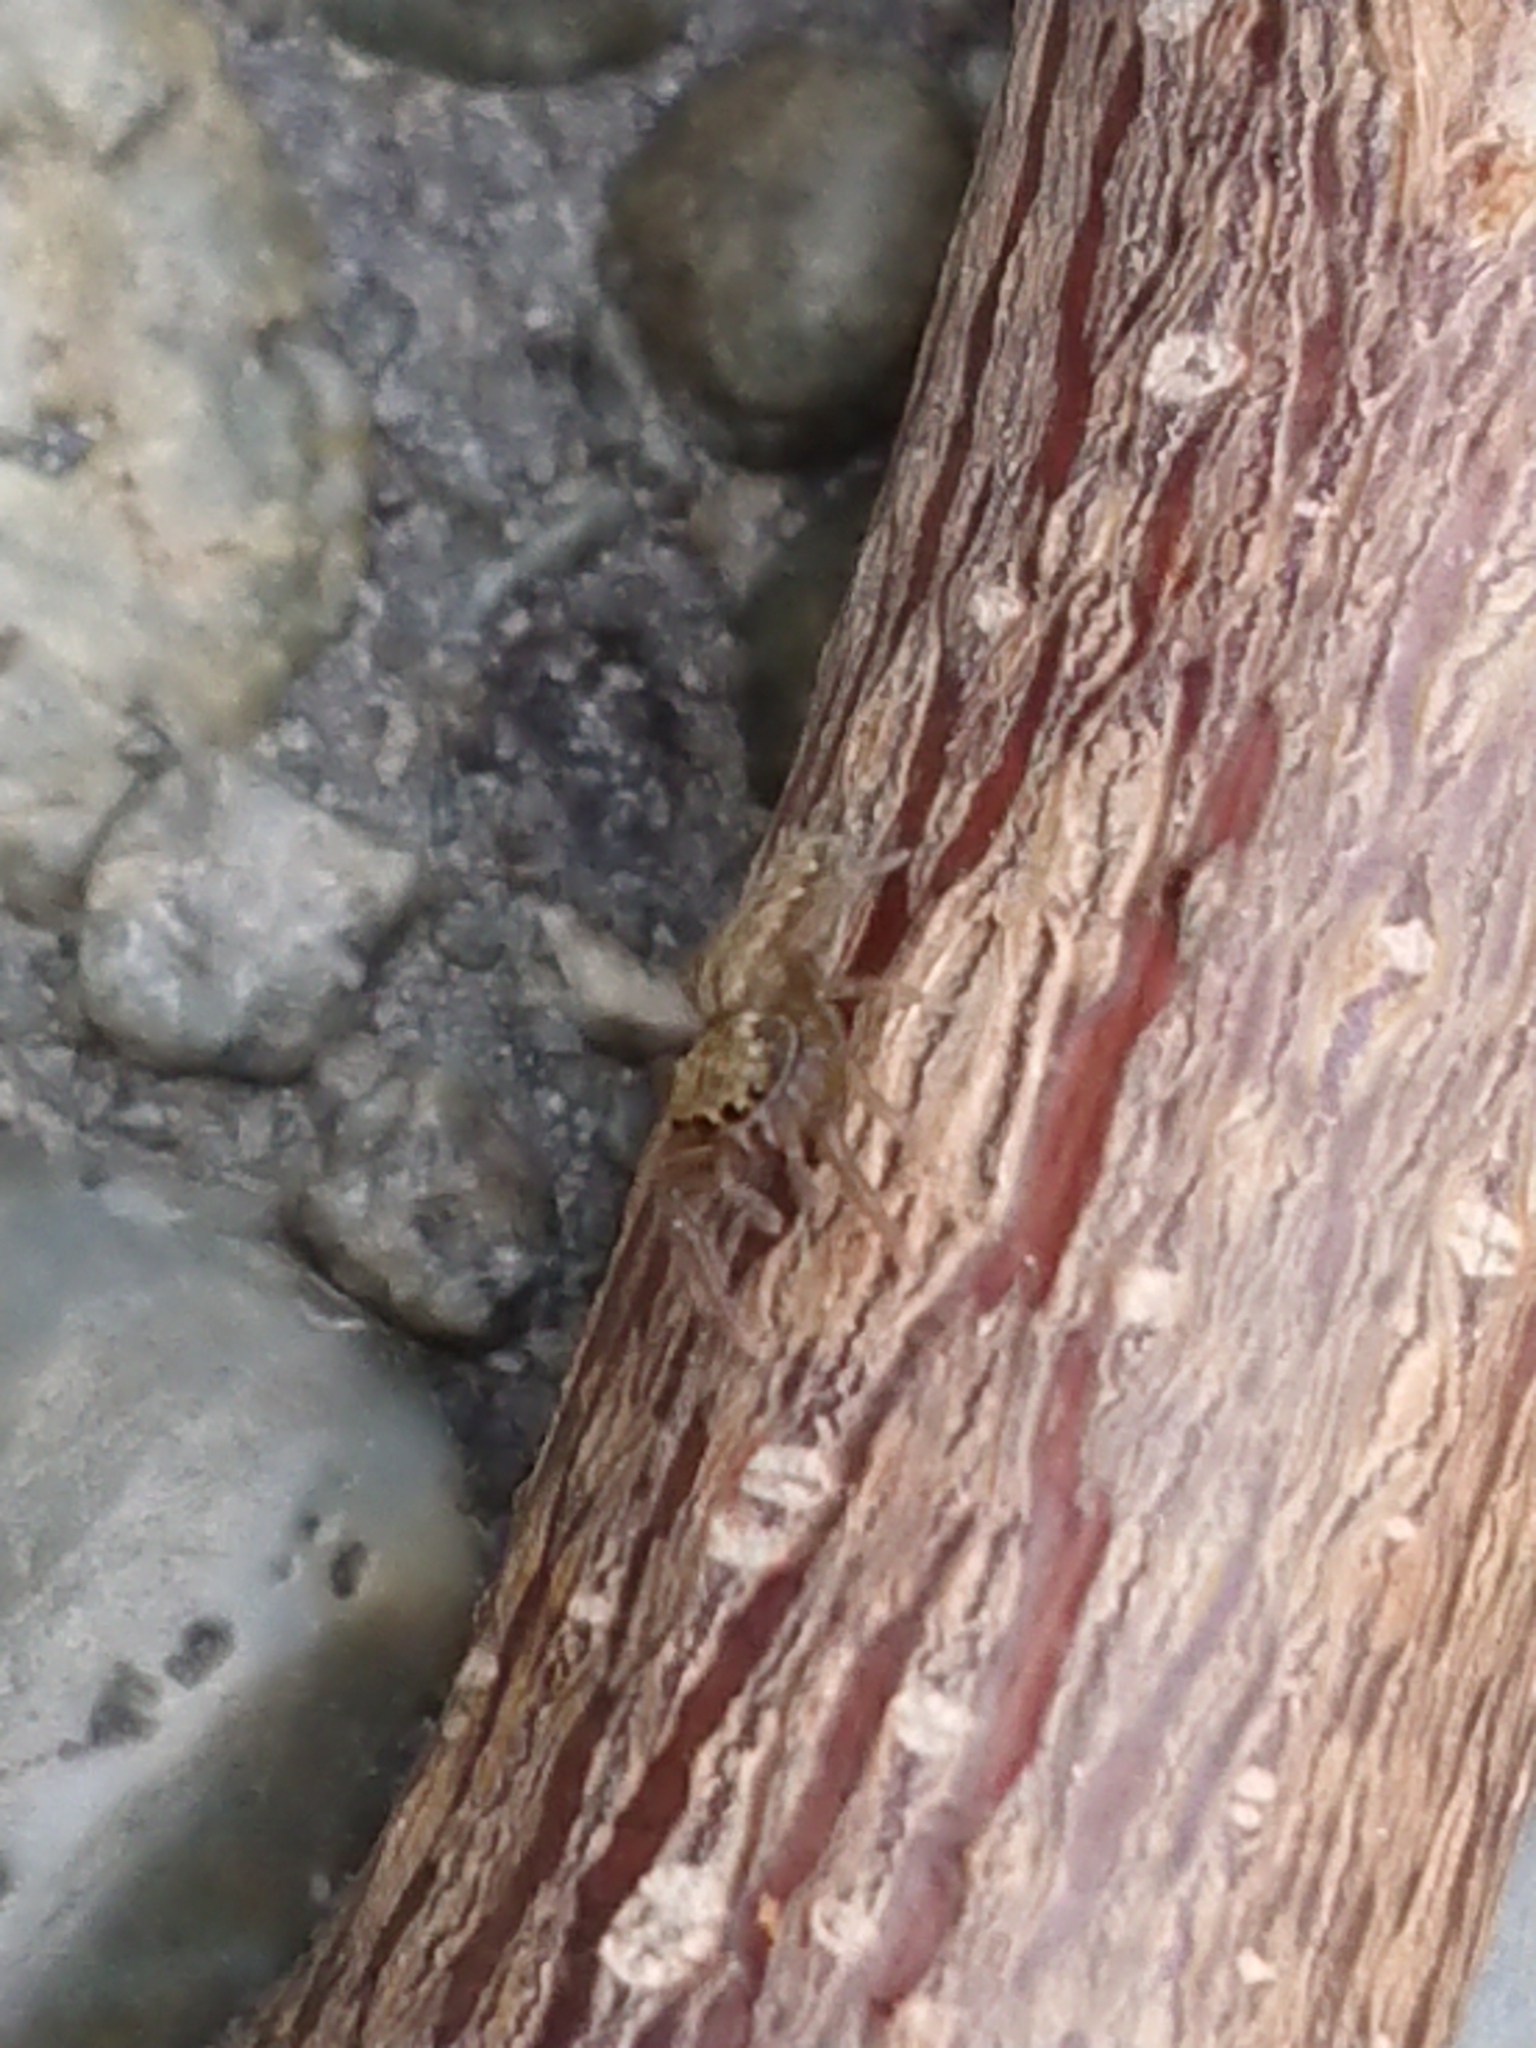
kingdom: Animalia
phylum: Arthropoda
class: Arachnida
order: Araneae
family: Salticidae
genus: Trite
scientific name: Trite auricoma
